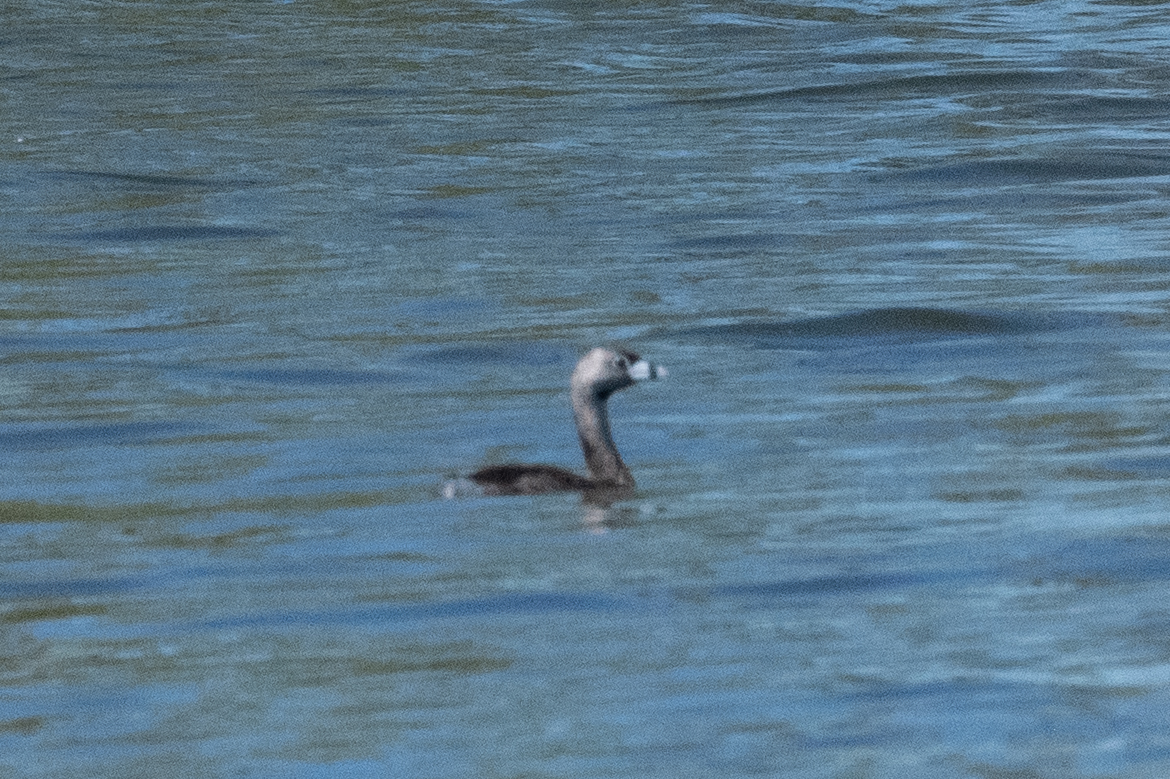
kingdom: Animalia
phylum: Chordata
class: Aves
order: Podicipediformes
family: Podicipedidae
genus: Podilymbus
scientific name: Podilymbus podiceps
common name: Pied-billed grebe
